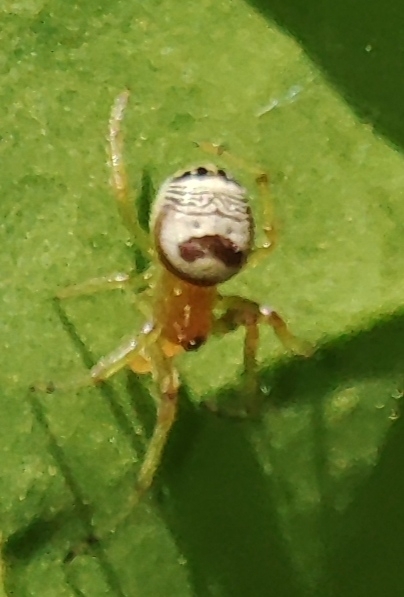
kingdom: Animalia
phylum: Arthropoda
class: Arachnida
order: Araneae
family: Araneidae
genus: Bijoaraneus
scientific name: Bijoaraneus mitificus
